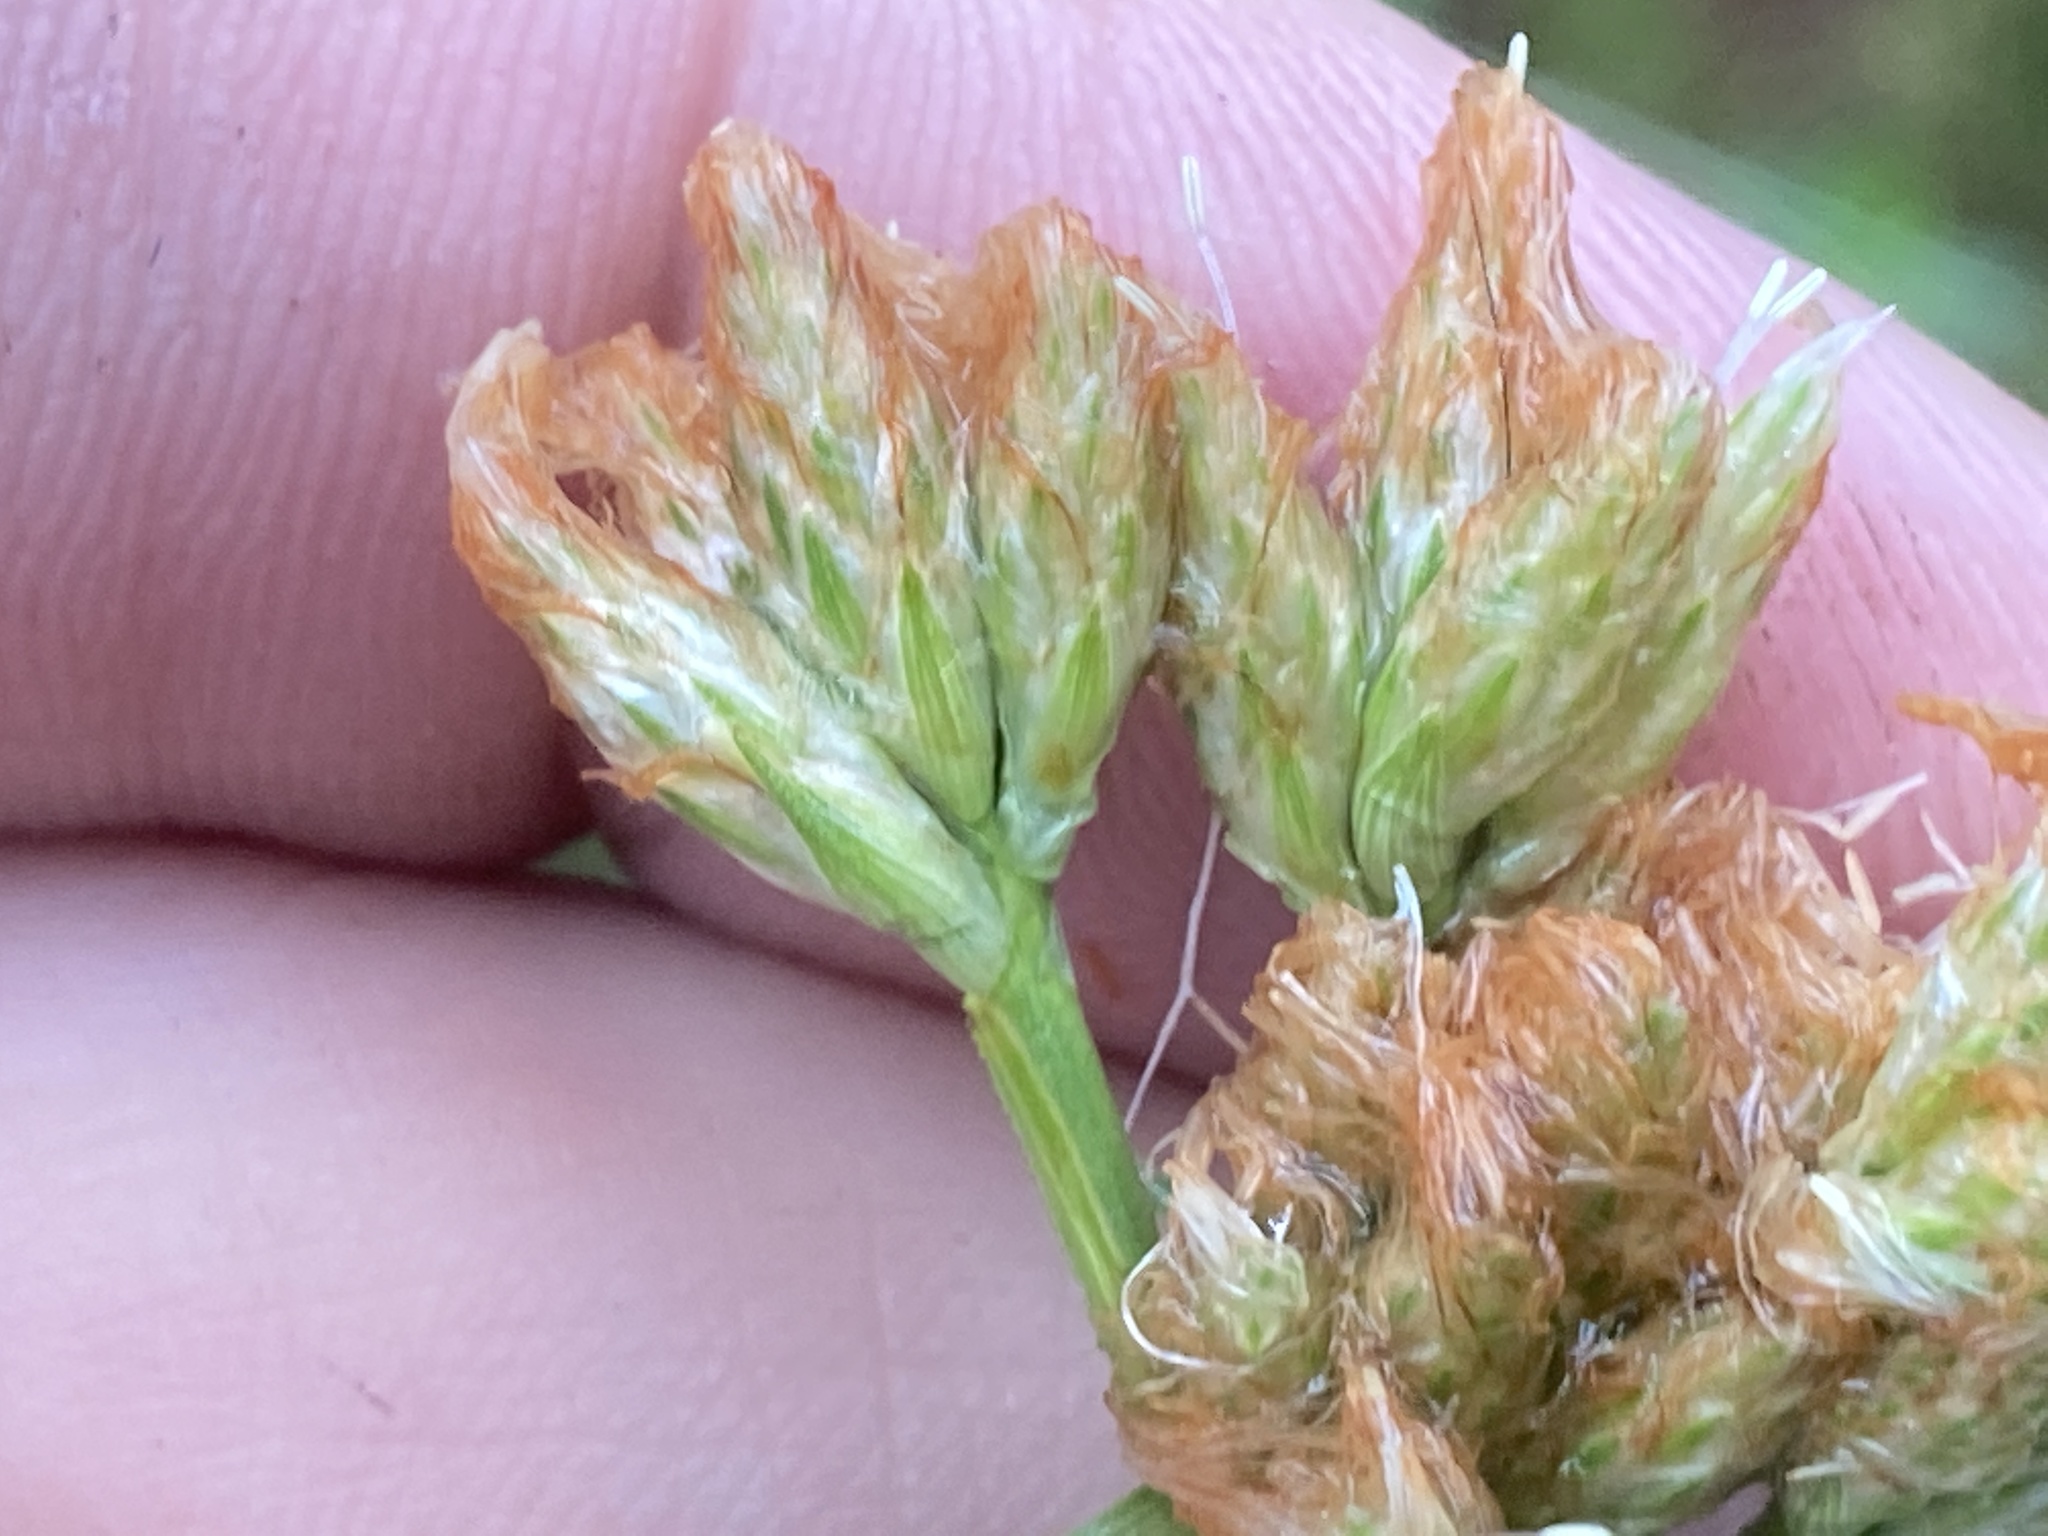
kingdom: Plantae
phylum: Tracheophyta
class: Liliopsida
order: Poales
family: Cyperaceae
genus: Eriophorum
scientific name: Eriophorum virginicum
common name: Tawny cottongrass
